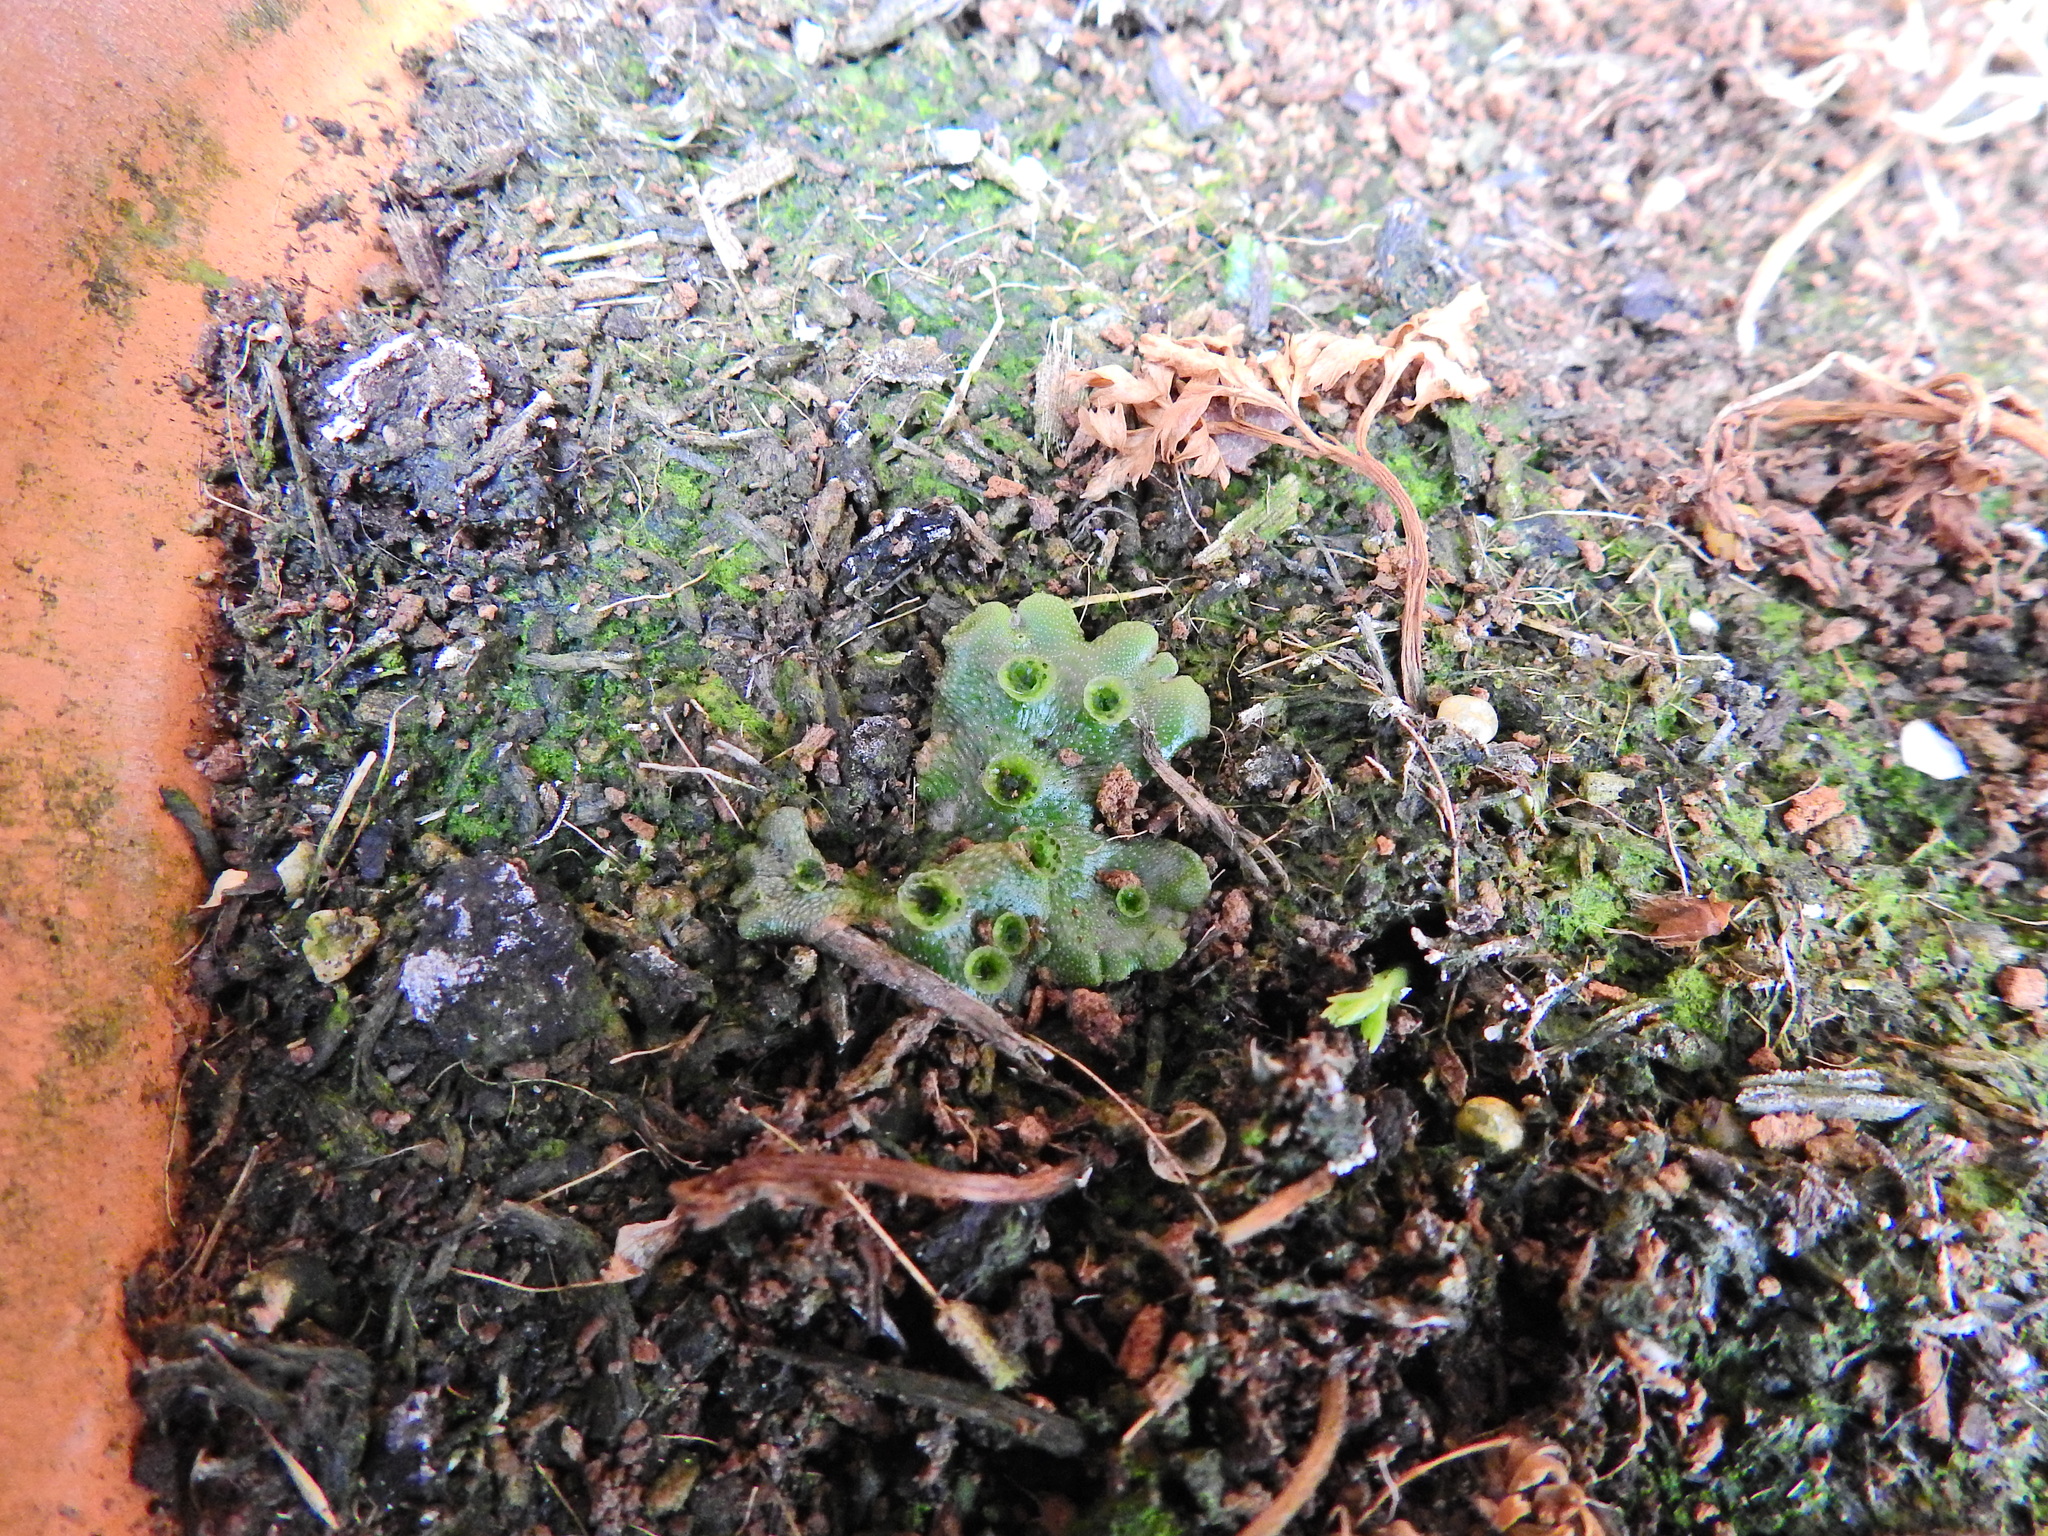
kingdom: Plantae
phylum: Marchantiophyta
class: Marchantiopsida
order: Marchantiales
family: Marchantiaceae
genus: Marchantia
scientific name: Marchantia polymorpha
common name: Common liverwort
